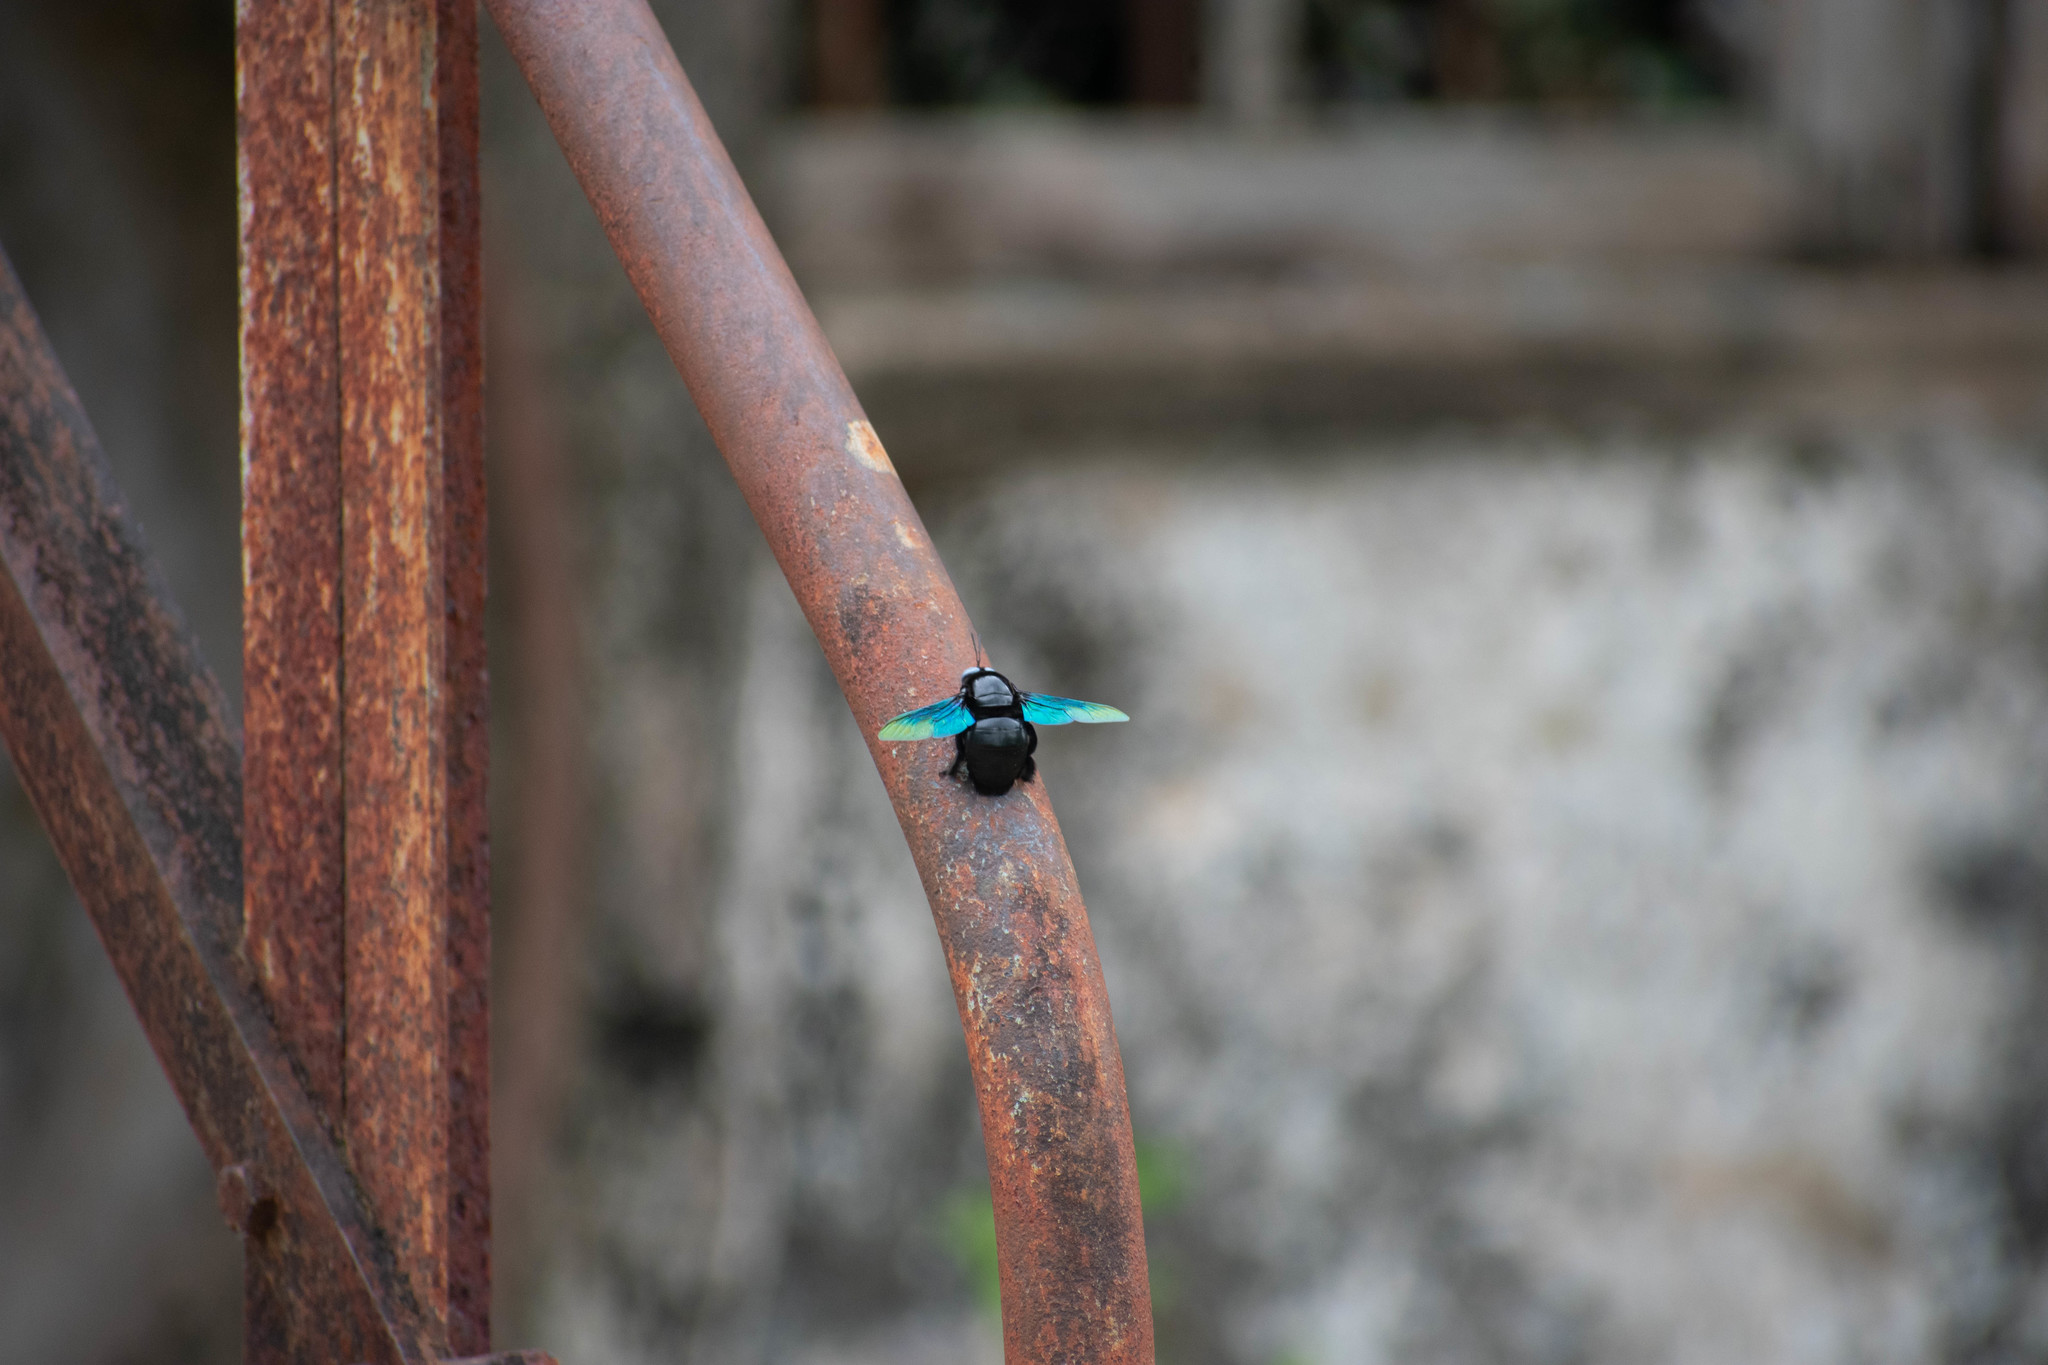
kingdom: Animalia
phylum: Arthropoda
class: Insecta
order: Hymenoptera
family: Apidae
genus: Xylocopa
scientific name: Xylocopa tenuiscapa
